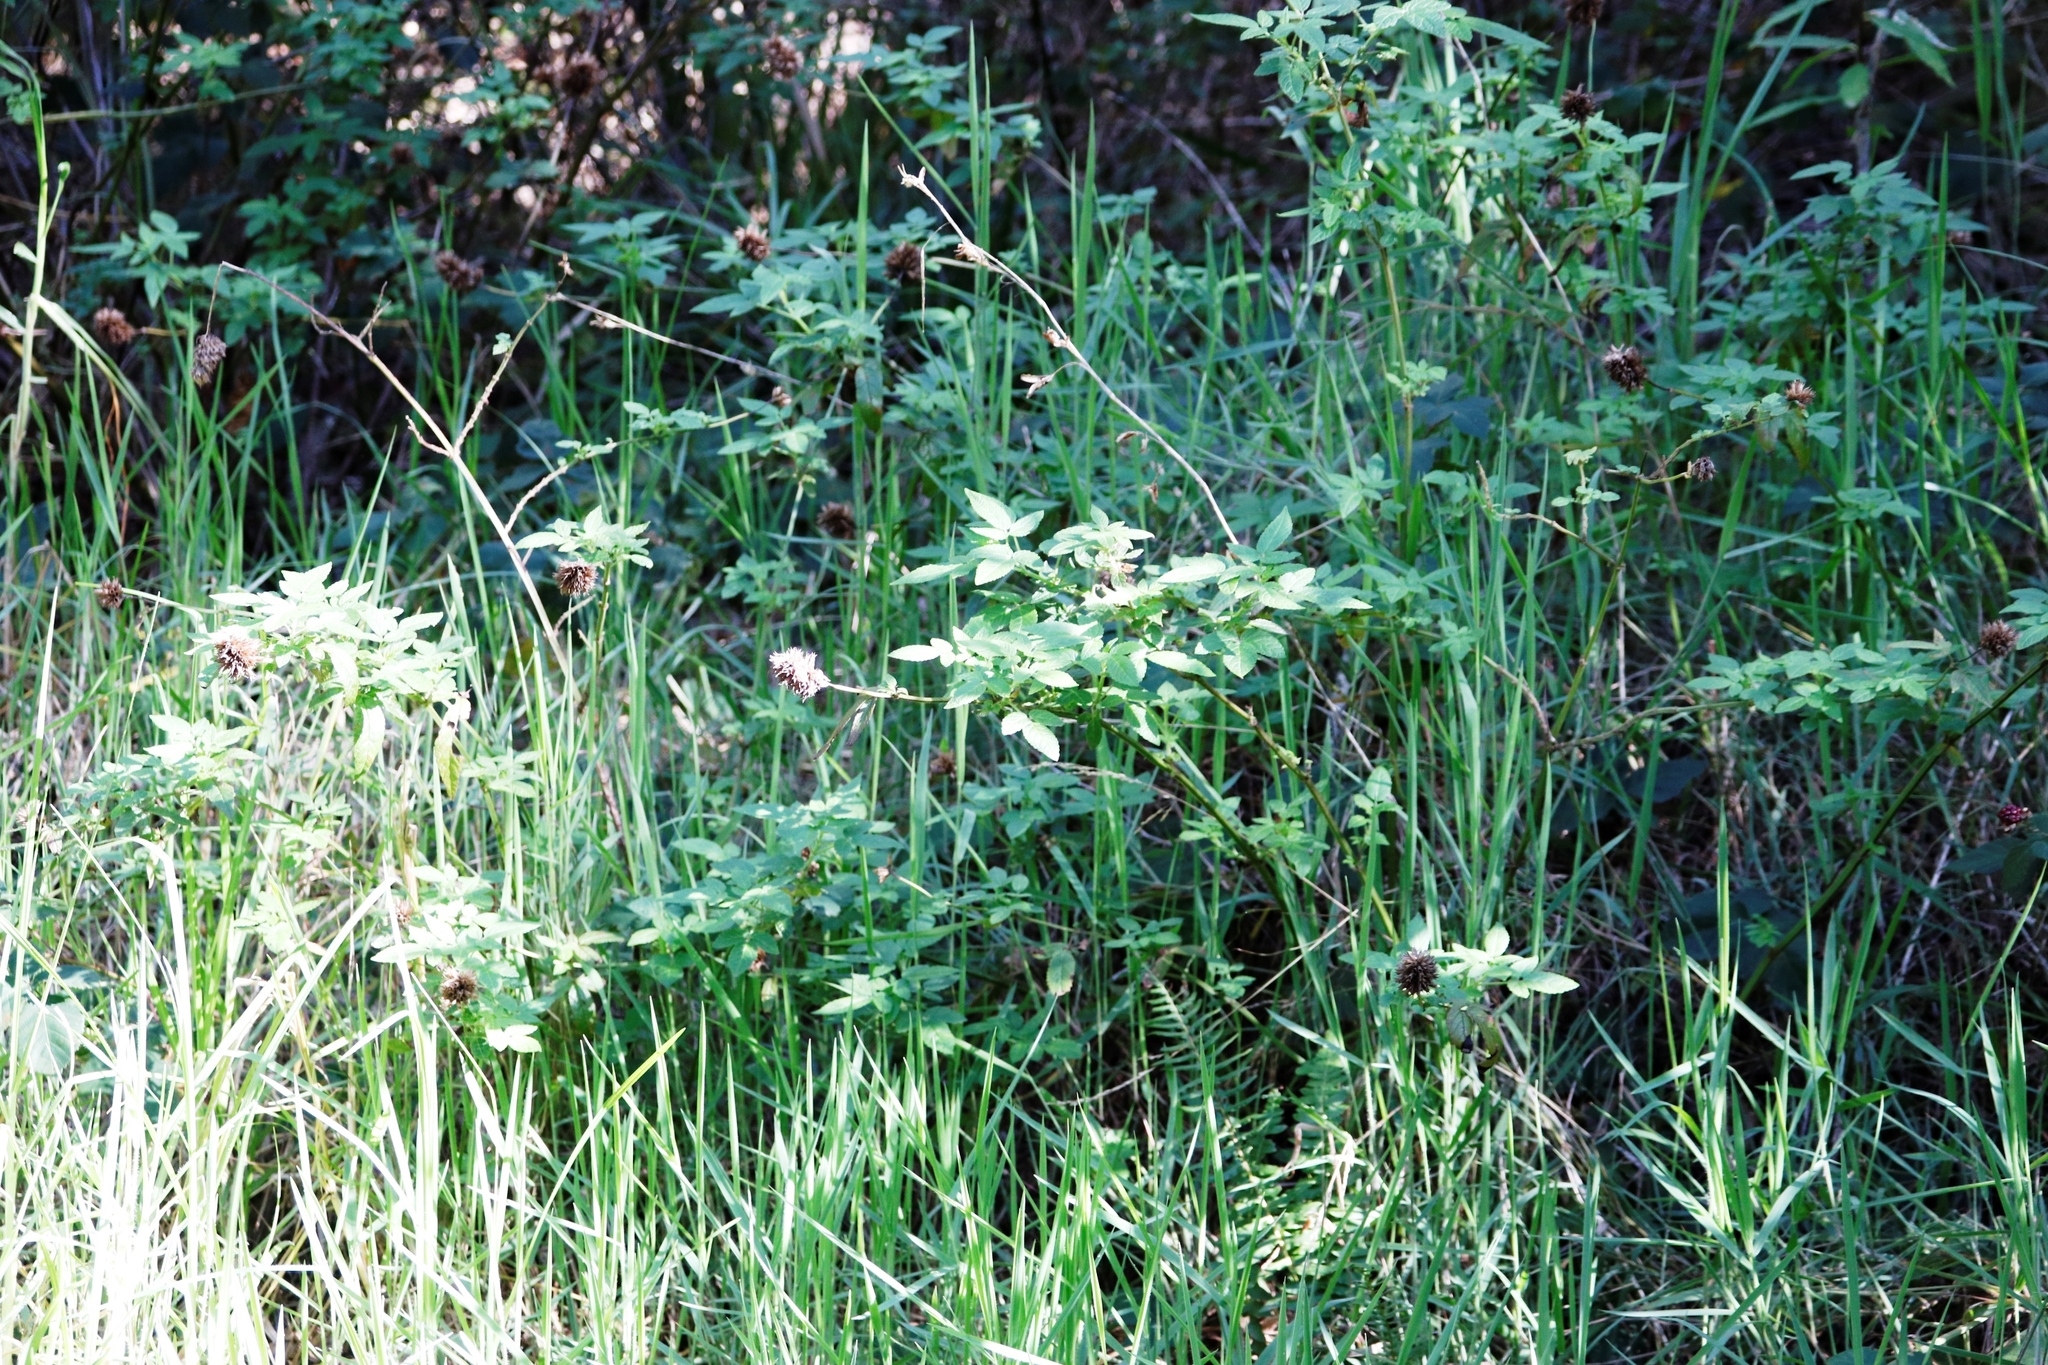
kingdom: Plantae
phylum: Tracheophyta
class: Magnoliopsida
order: Lamiales
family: Lamiaceae
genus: Cedronella
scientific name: Cedronella canariensis
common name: Canary islands balm
